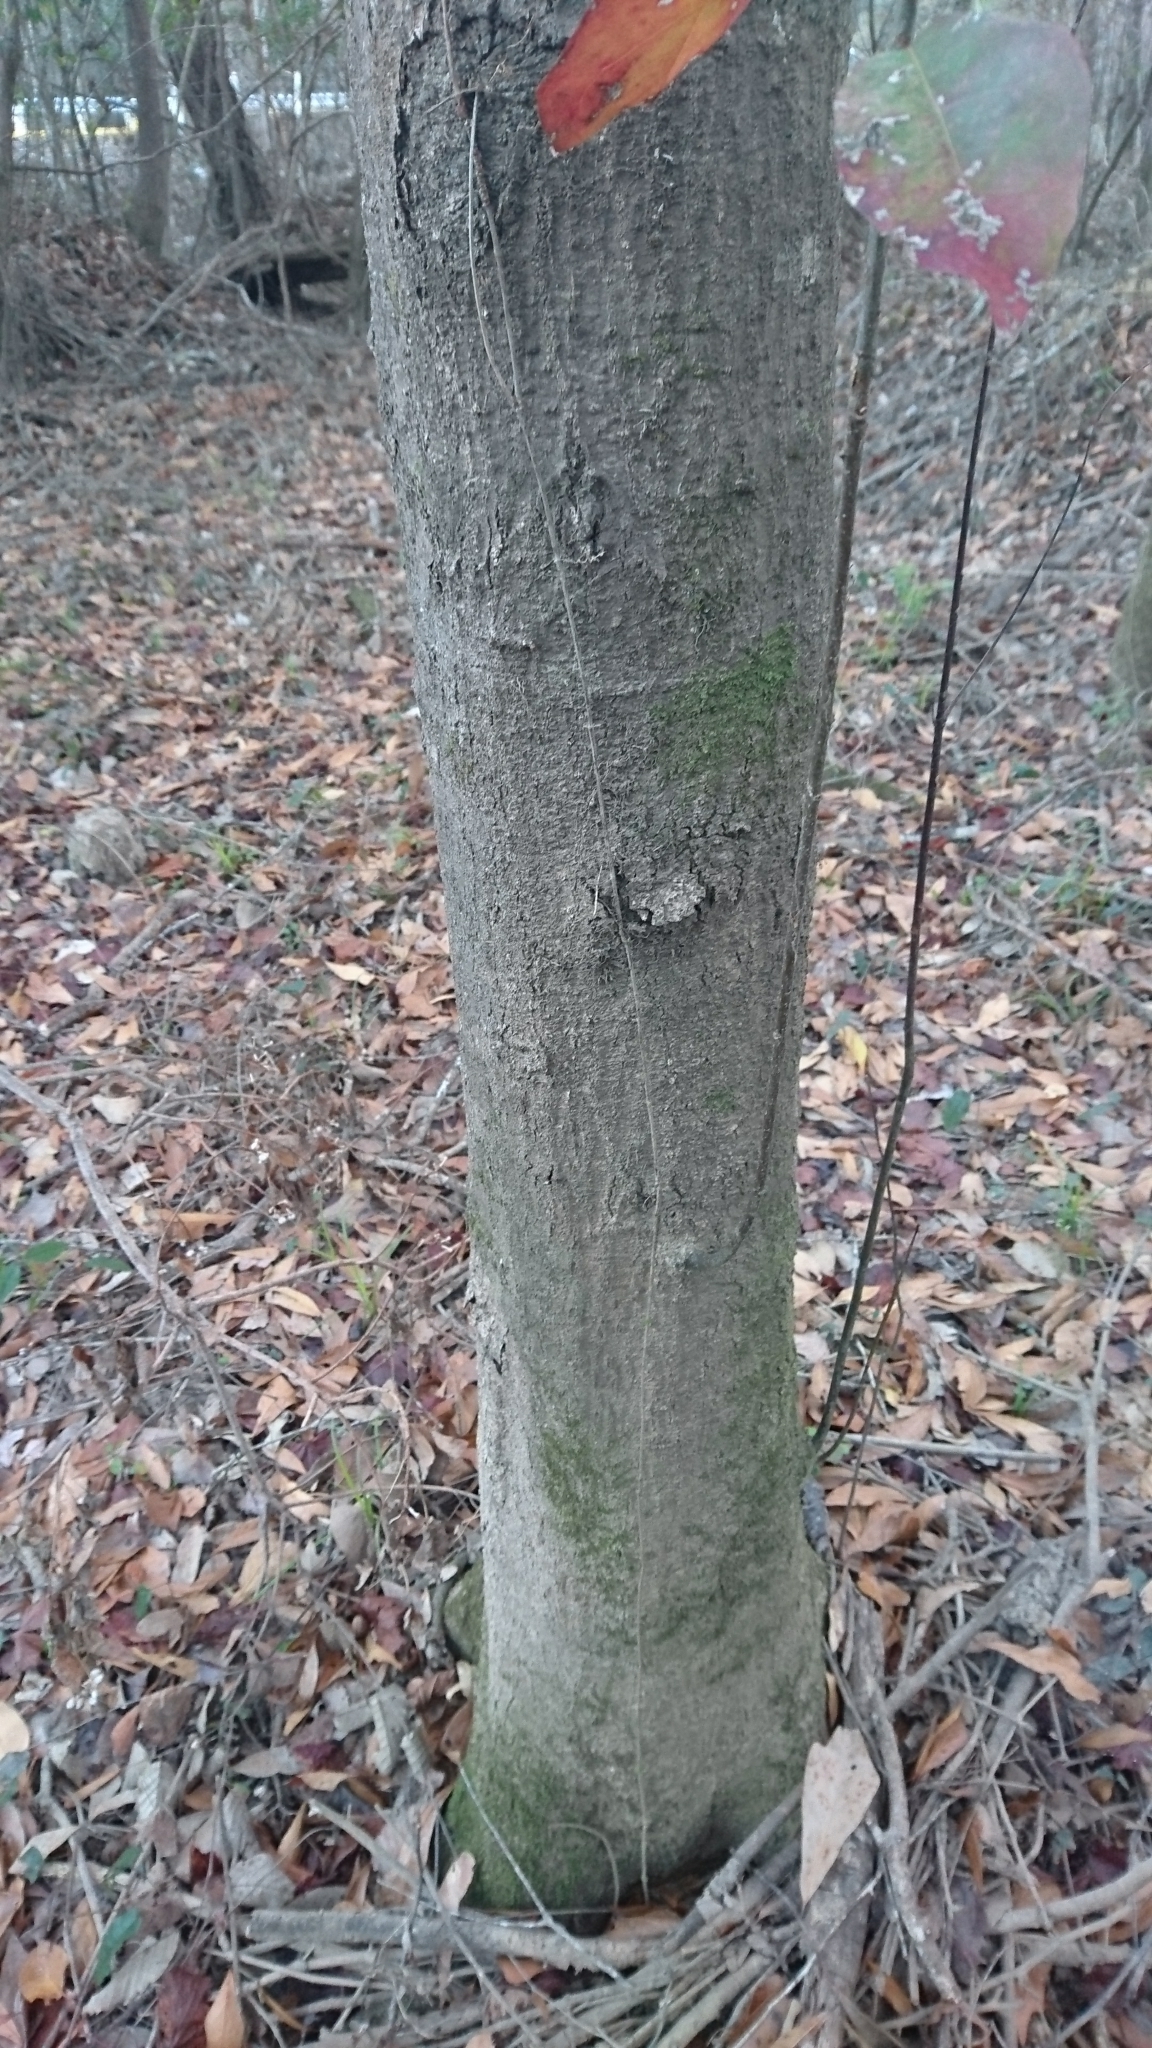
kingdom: Plantae
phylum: Tracheophyta
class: Magnoliopsida
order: Cornales
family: Nyssaceae
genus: Nyssa
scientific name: Nyssa sylvatica
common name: Black tupelo
